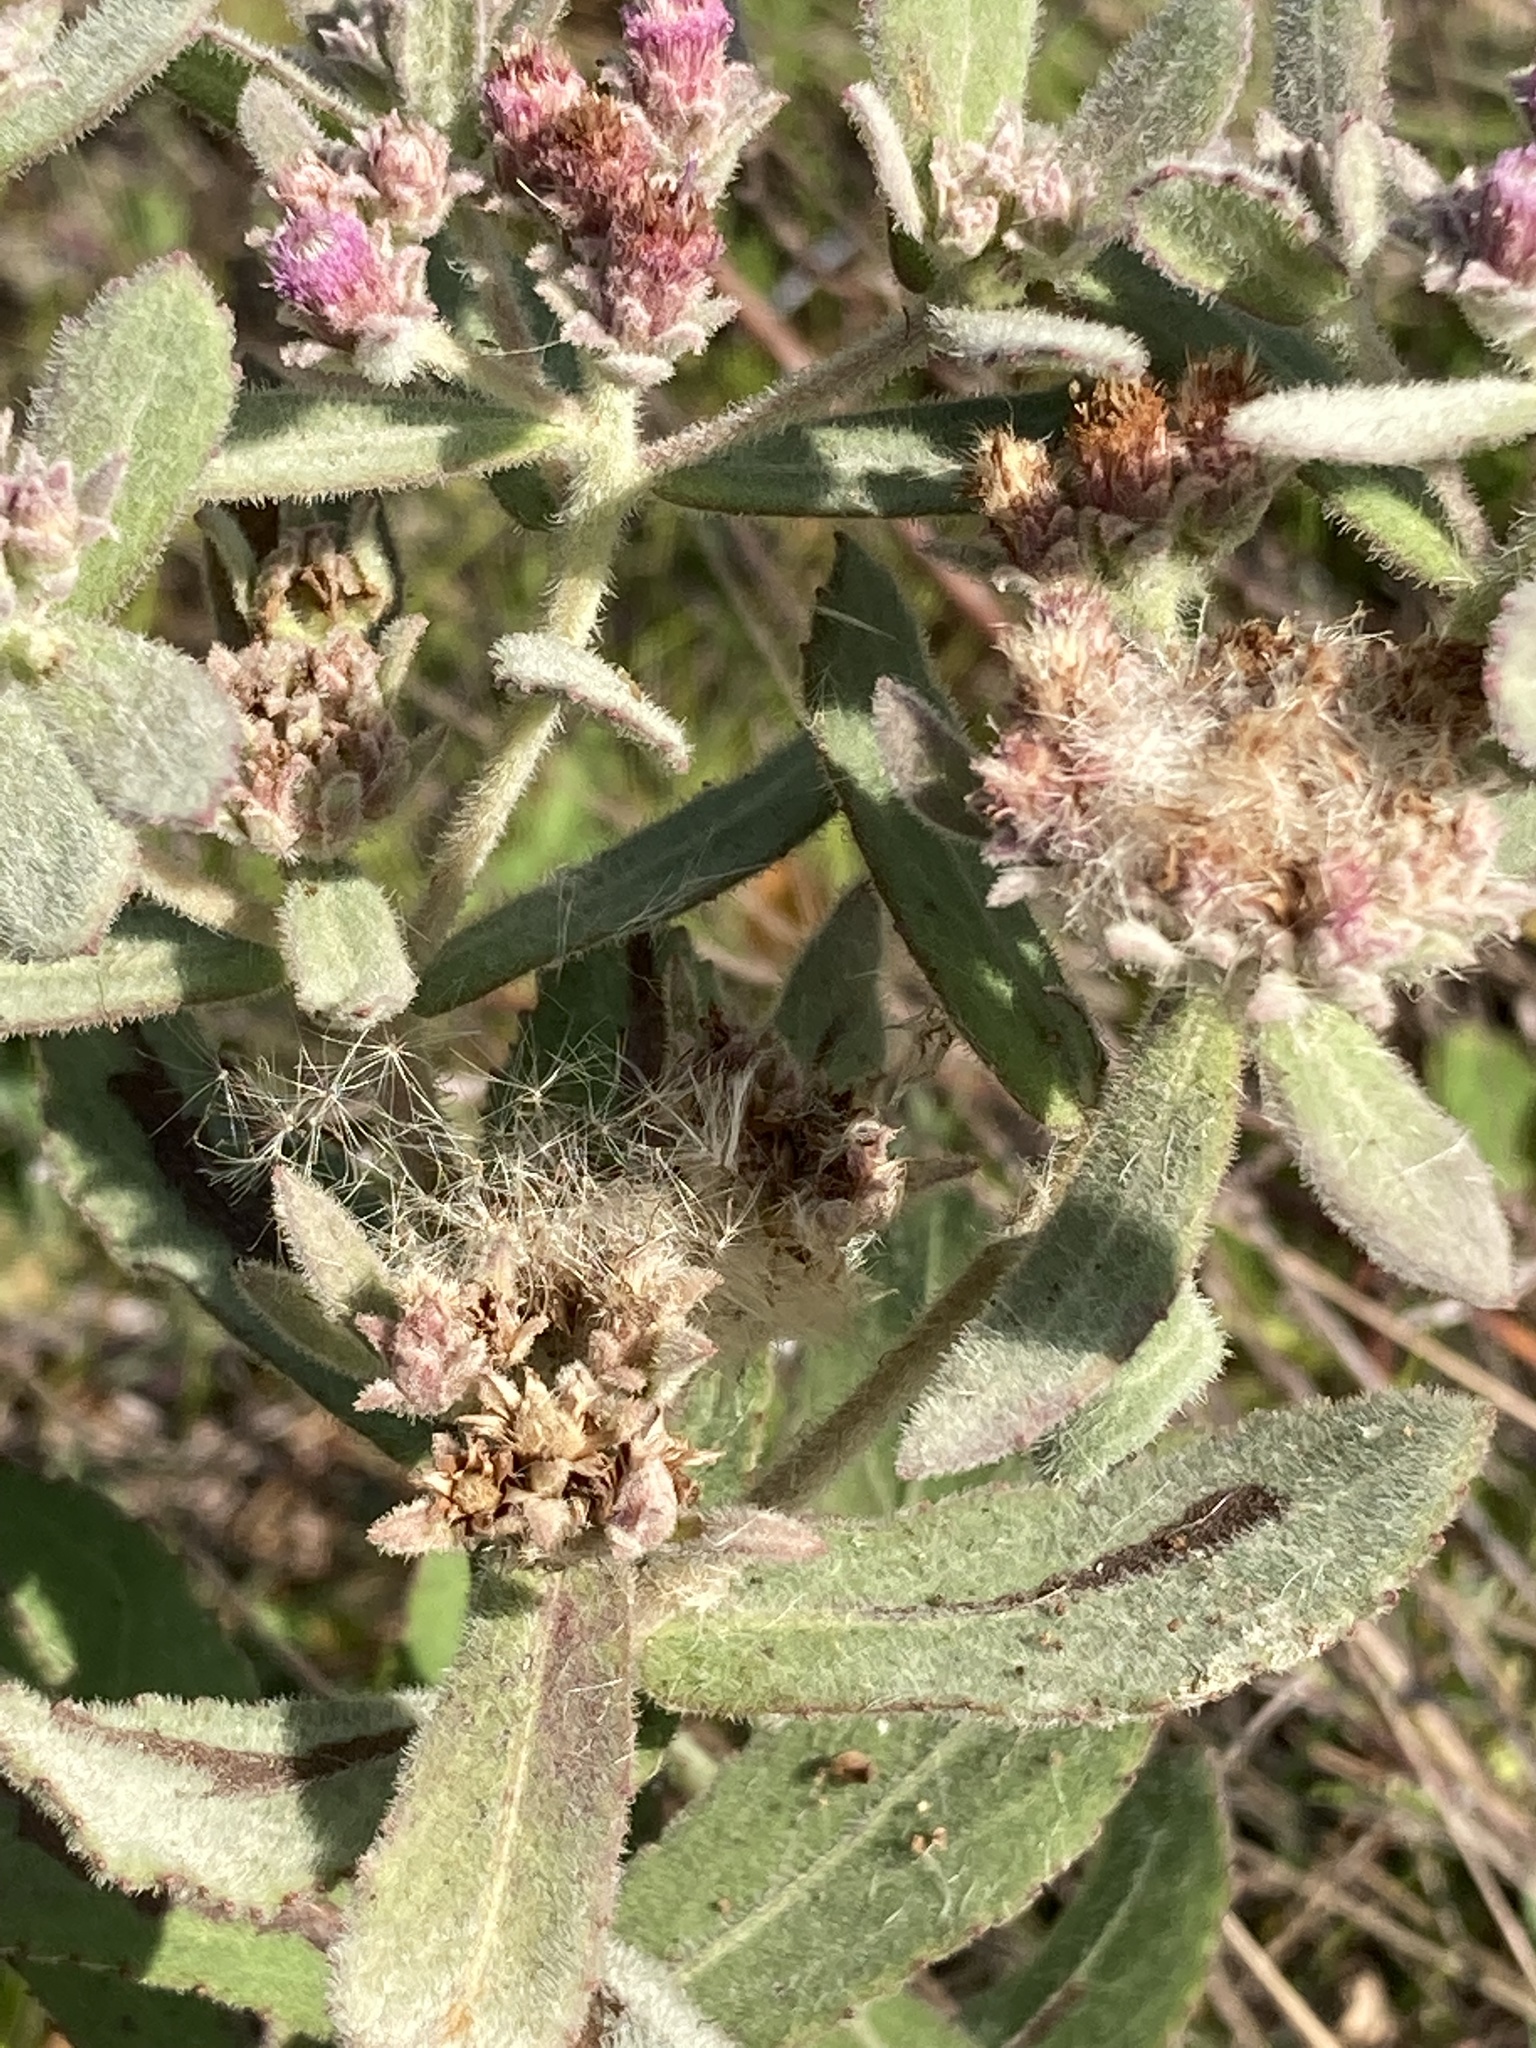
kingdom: Plantae
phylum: Tracheophyta
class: Magnoliopsida
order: Asterales
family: Asteraceae
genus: Pluchea
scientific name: Pluchea baccharis
